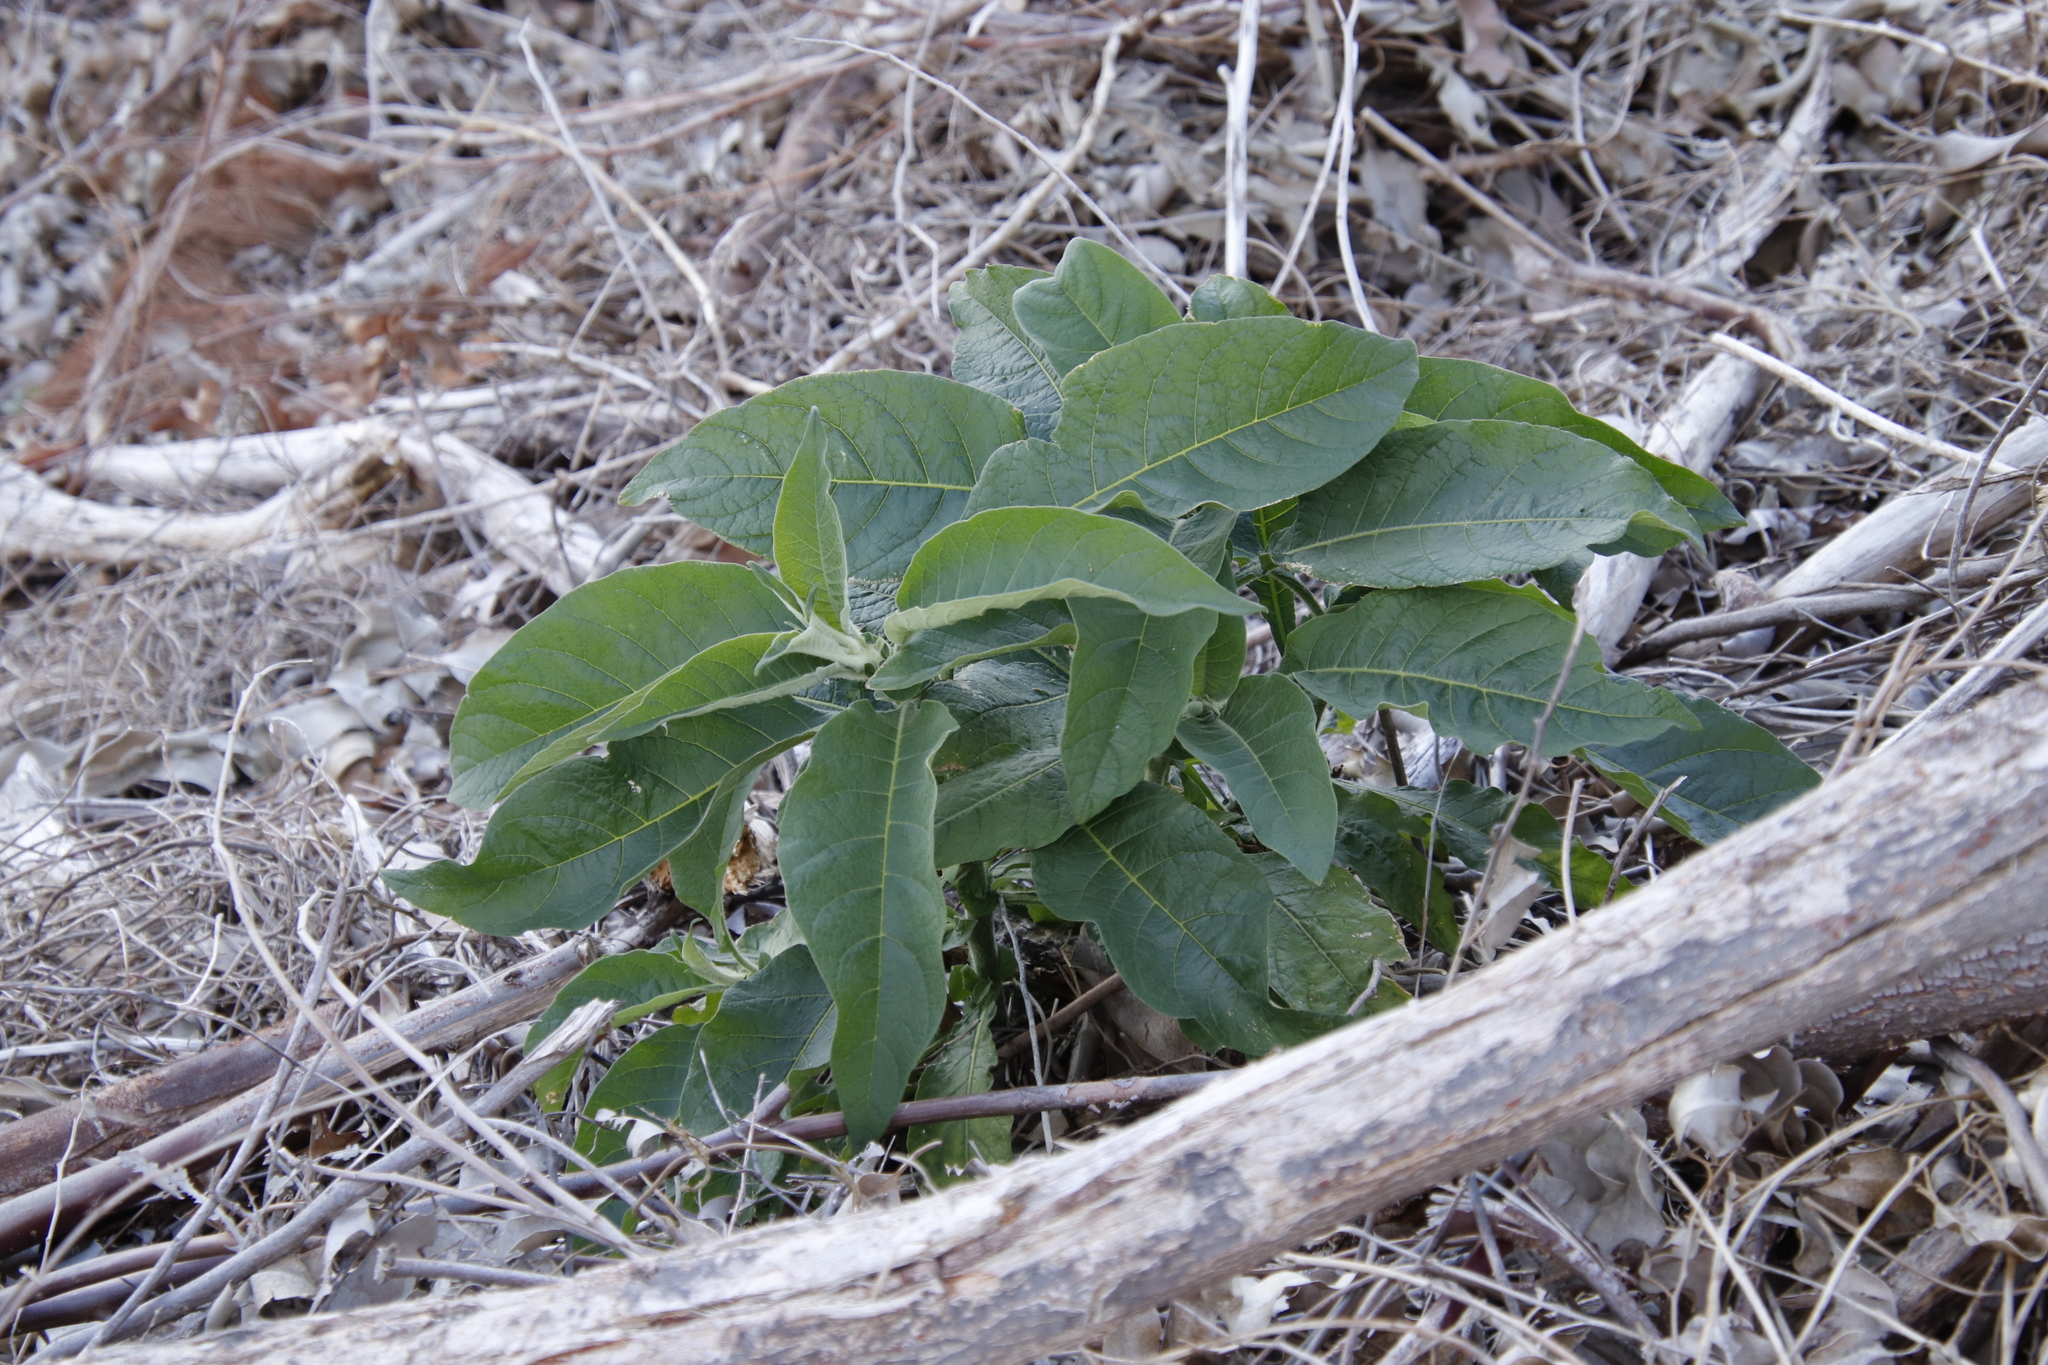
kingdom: Plantae
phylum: Tracheophyta
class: Magnoliopsida
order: Solanales
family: Solanaceae
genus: Solanum
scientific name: Solanum mauritianum
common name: Earleaf nightshade
